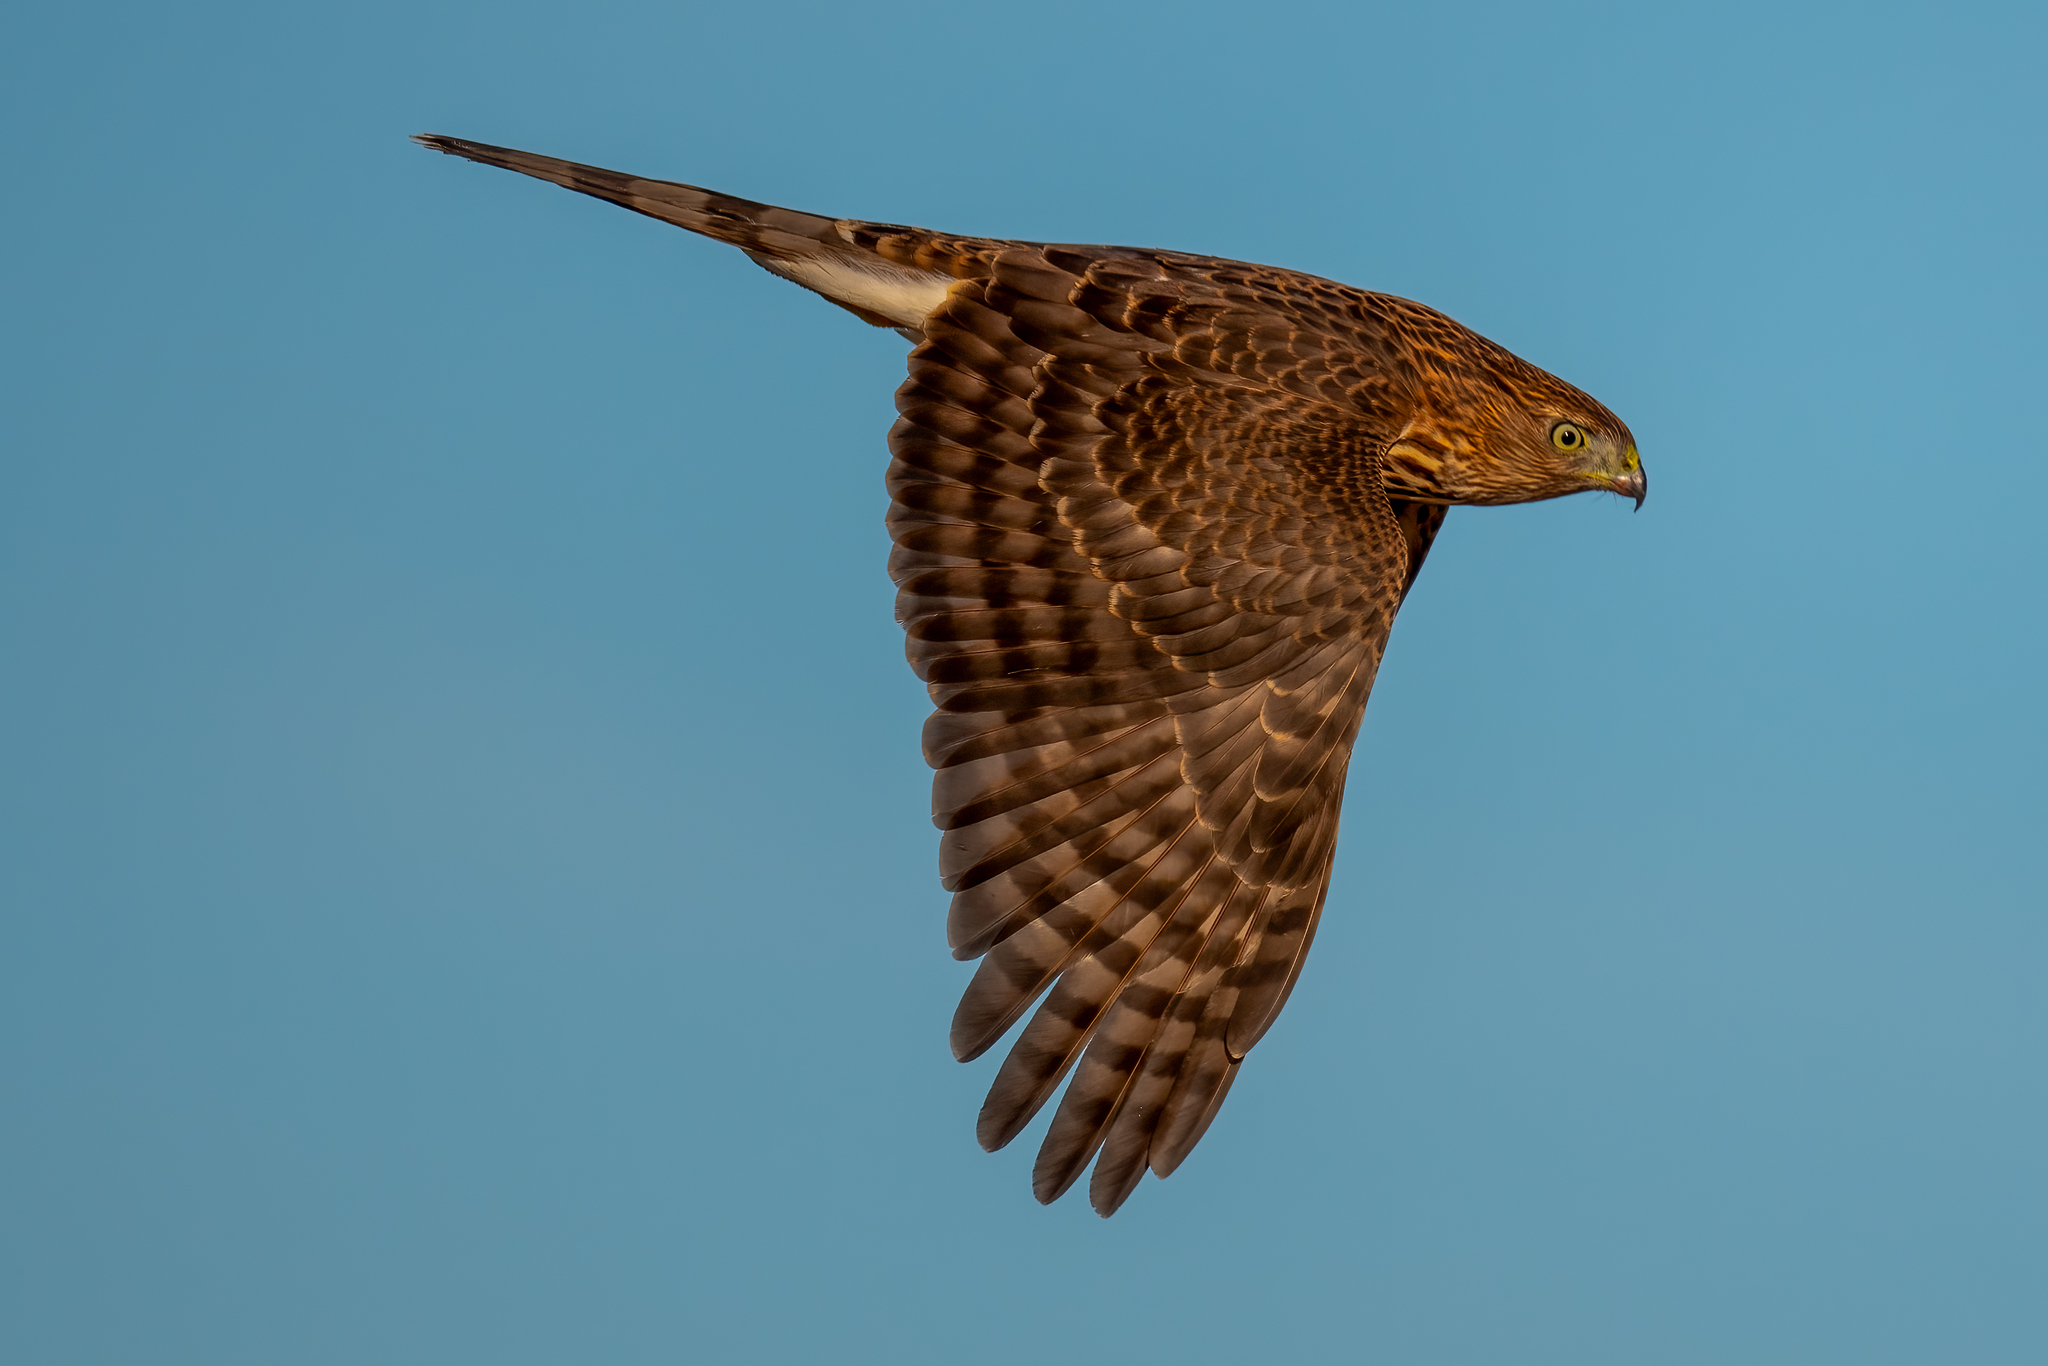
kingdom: Animalia
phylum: Chordata
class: Aves
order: Accipitriformes
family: Accipitridae
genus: Accipiter
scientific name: Accipiter cooperii
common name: Cooper's hawk
